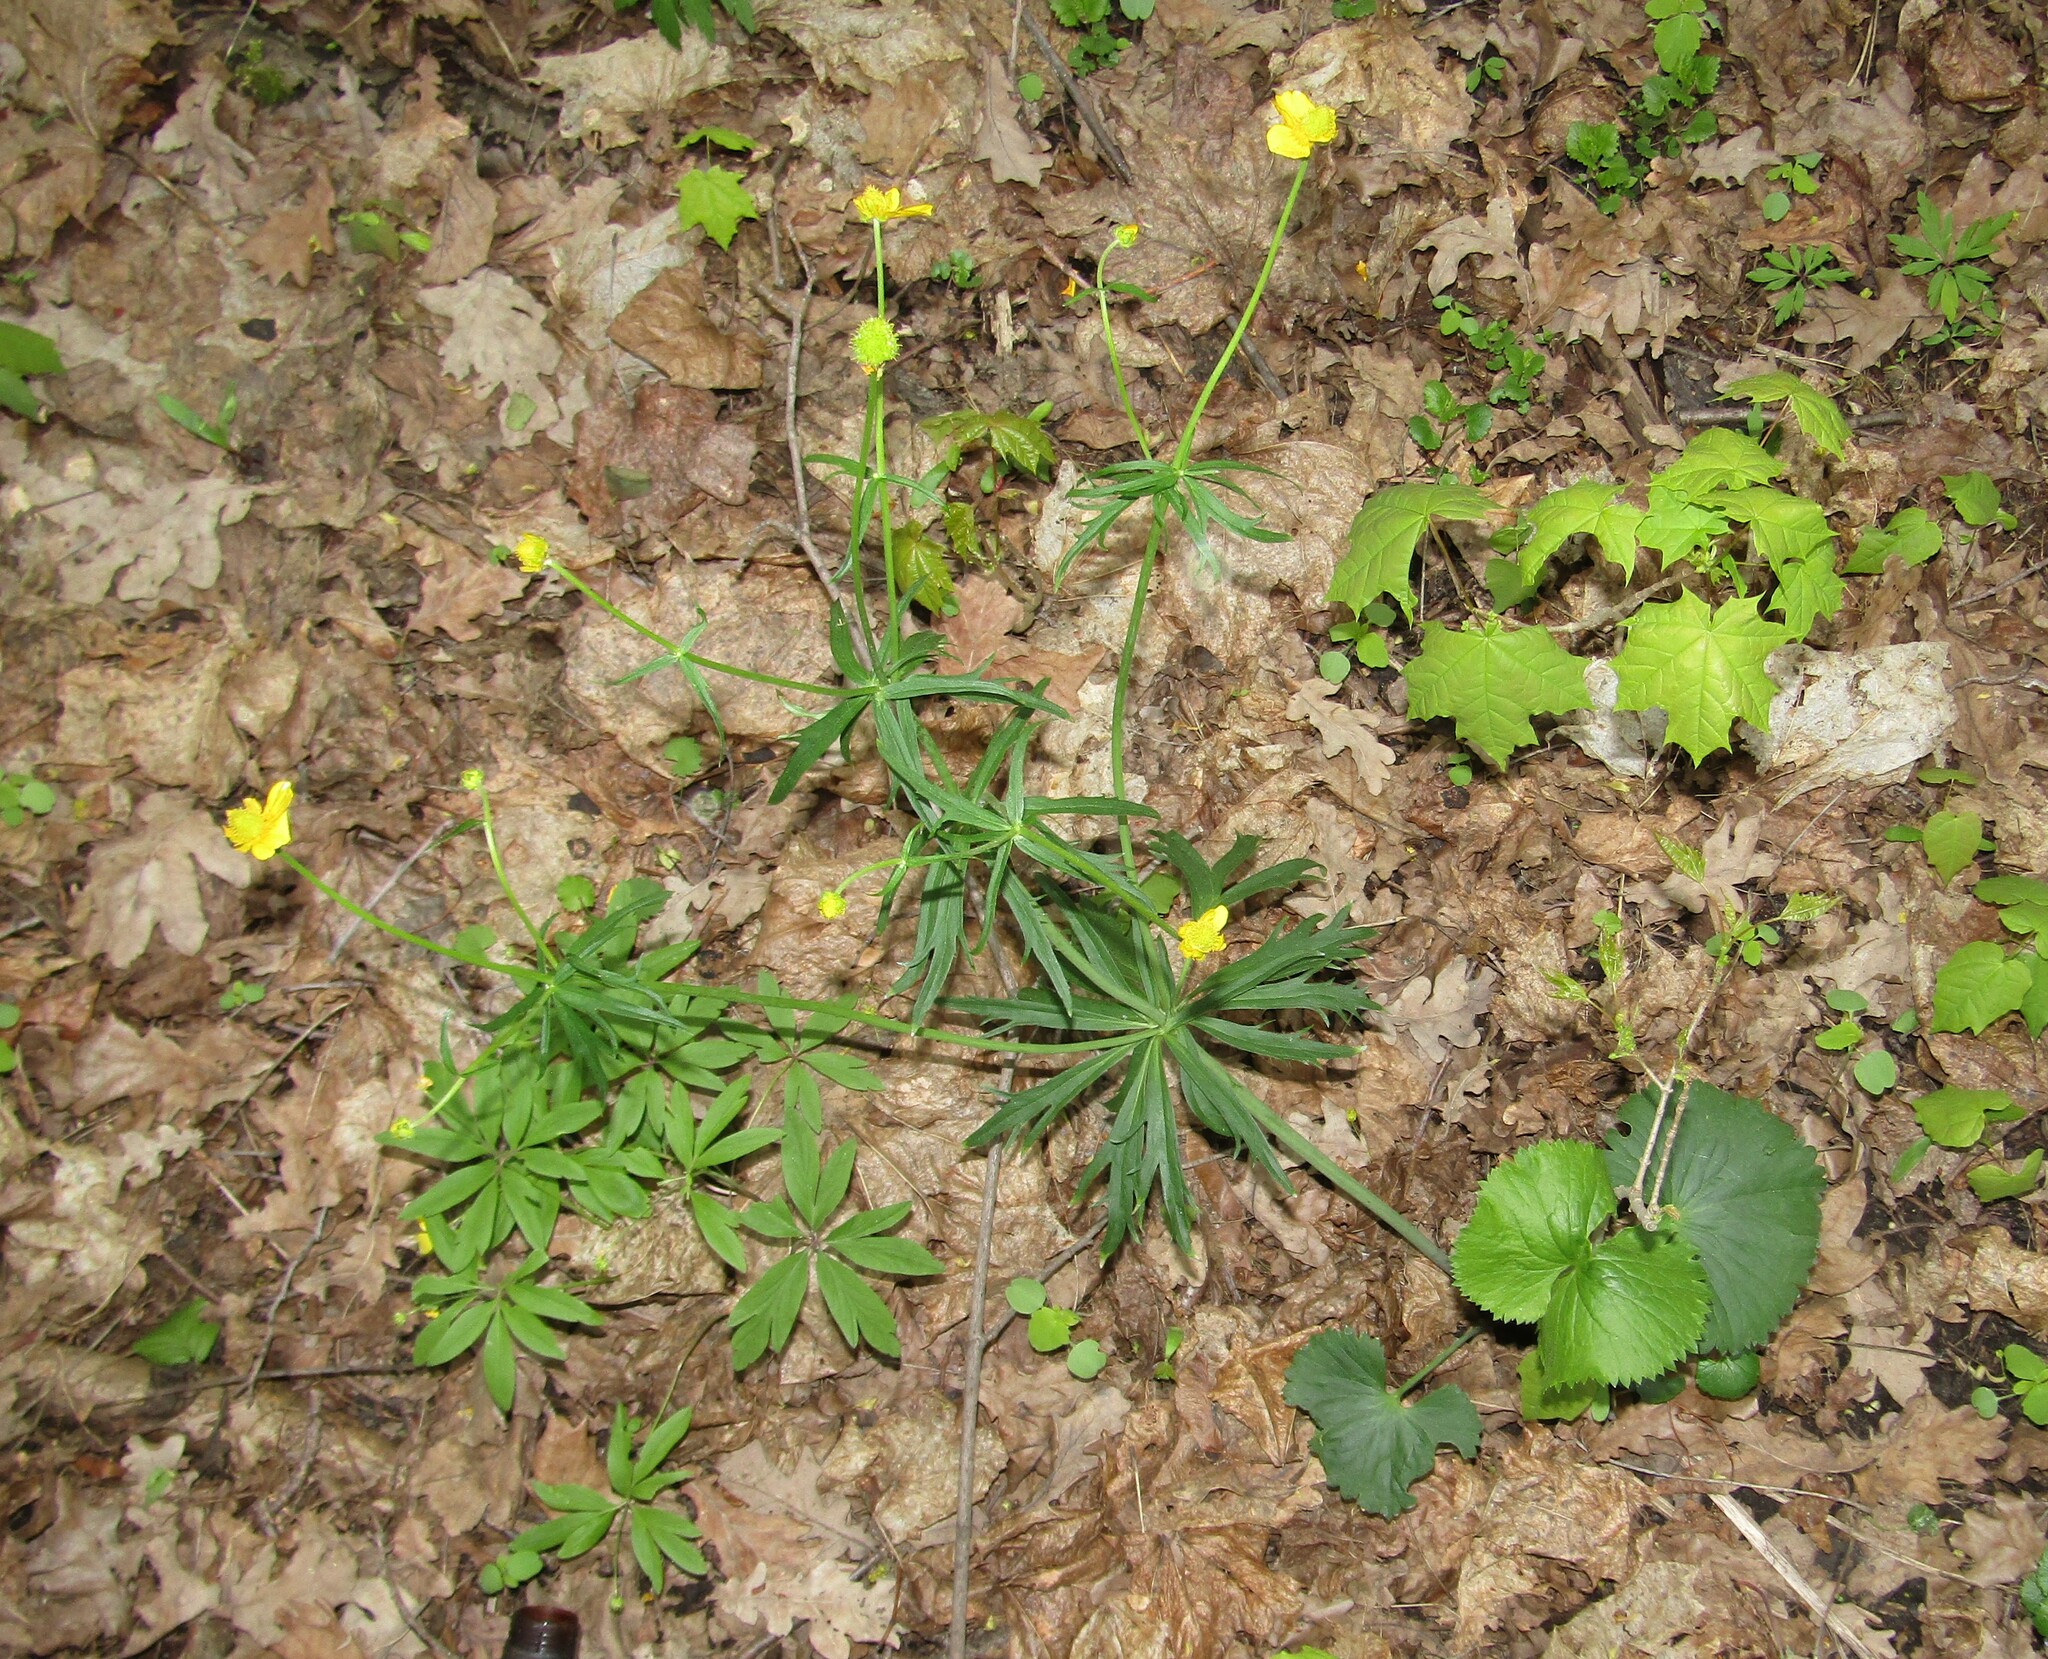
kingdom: Plantae
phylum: Tracheophyta
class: Magnoliopsida
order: Ranunculales
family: Ranunculaceae
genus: Ranunculus
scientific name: Ranunculus cassubicus
